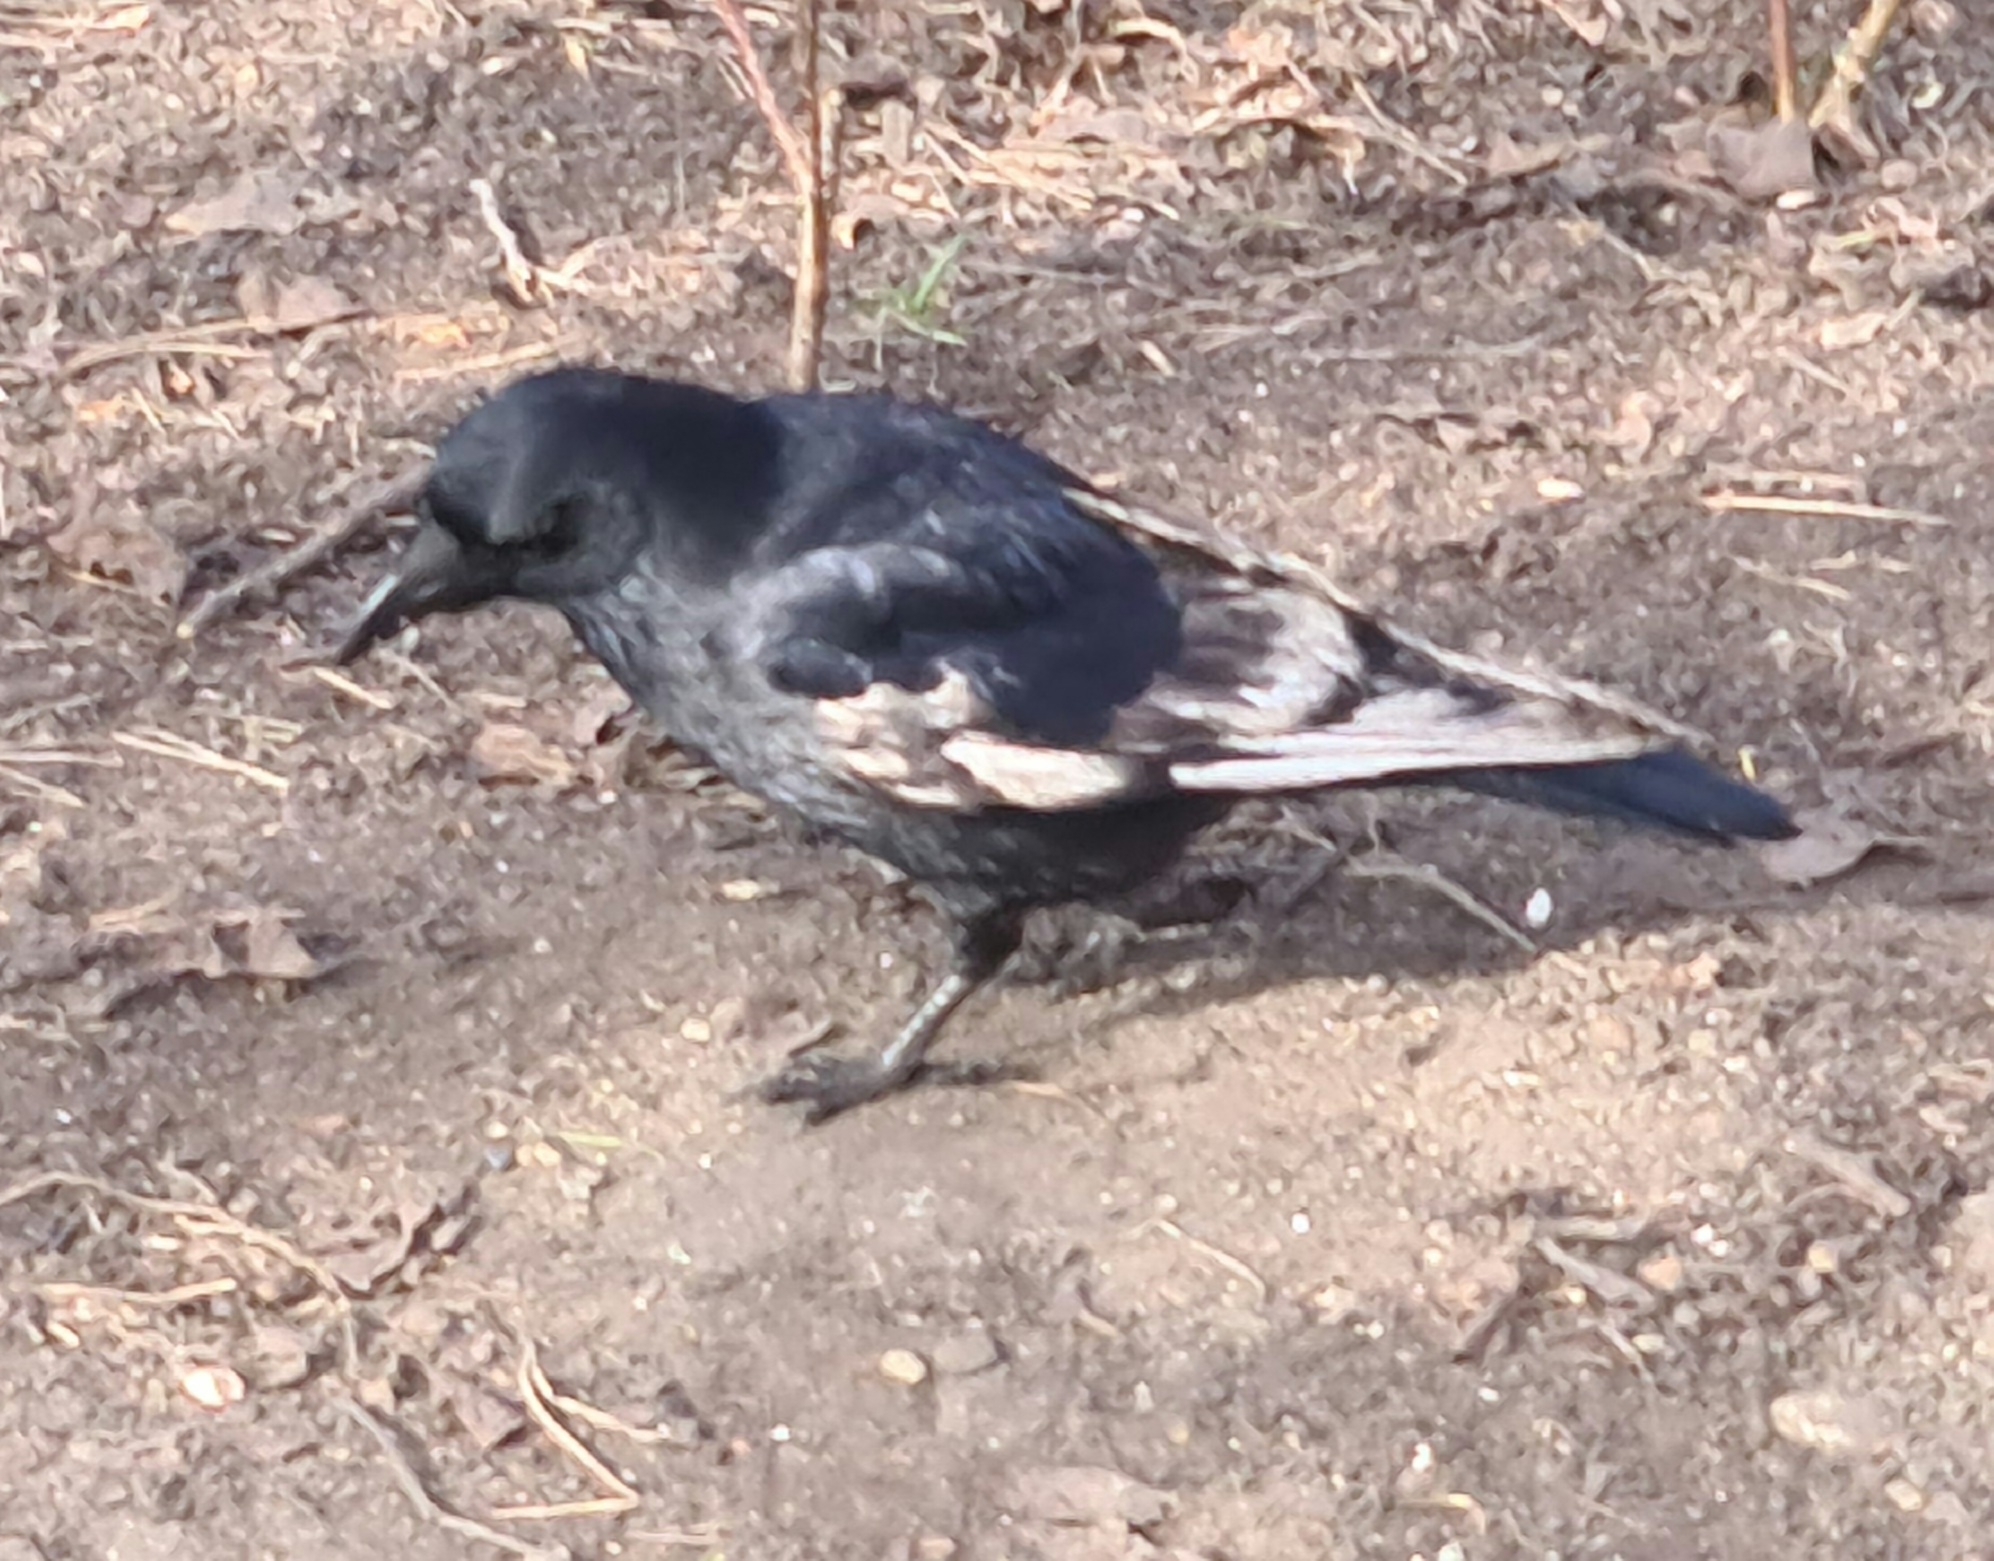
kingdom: Animalia
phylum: Chordata
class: Aves
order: Passeriformes
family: Corvidae
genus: Corvus
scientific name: Corvus corone
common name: Carrion crow
